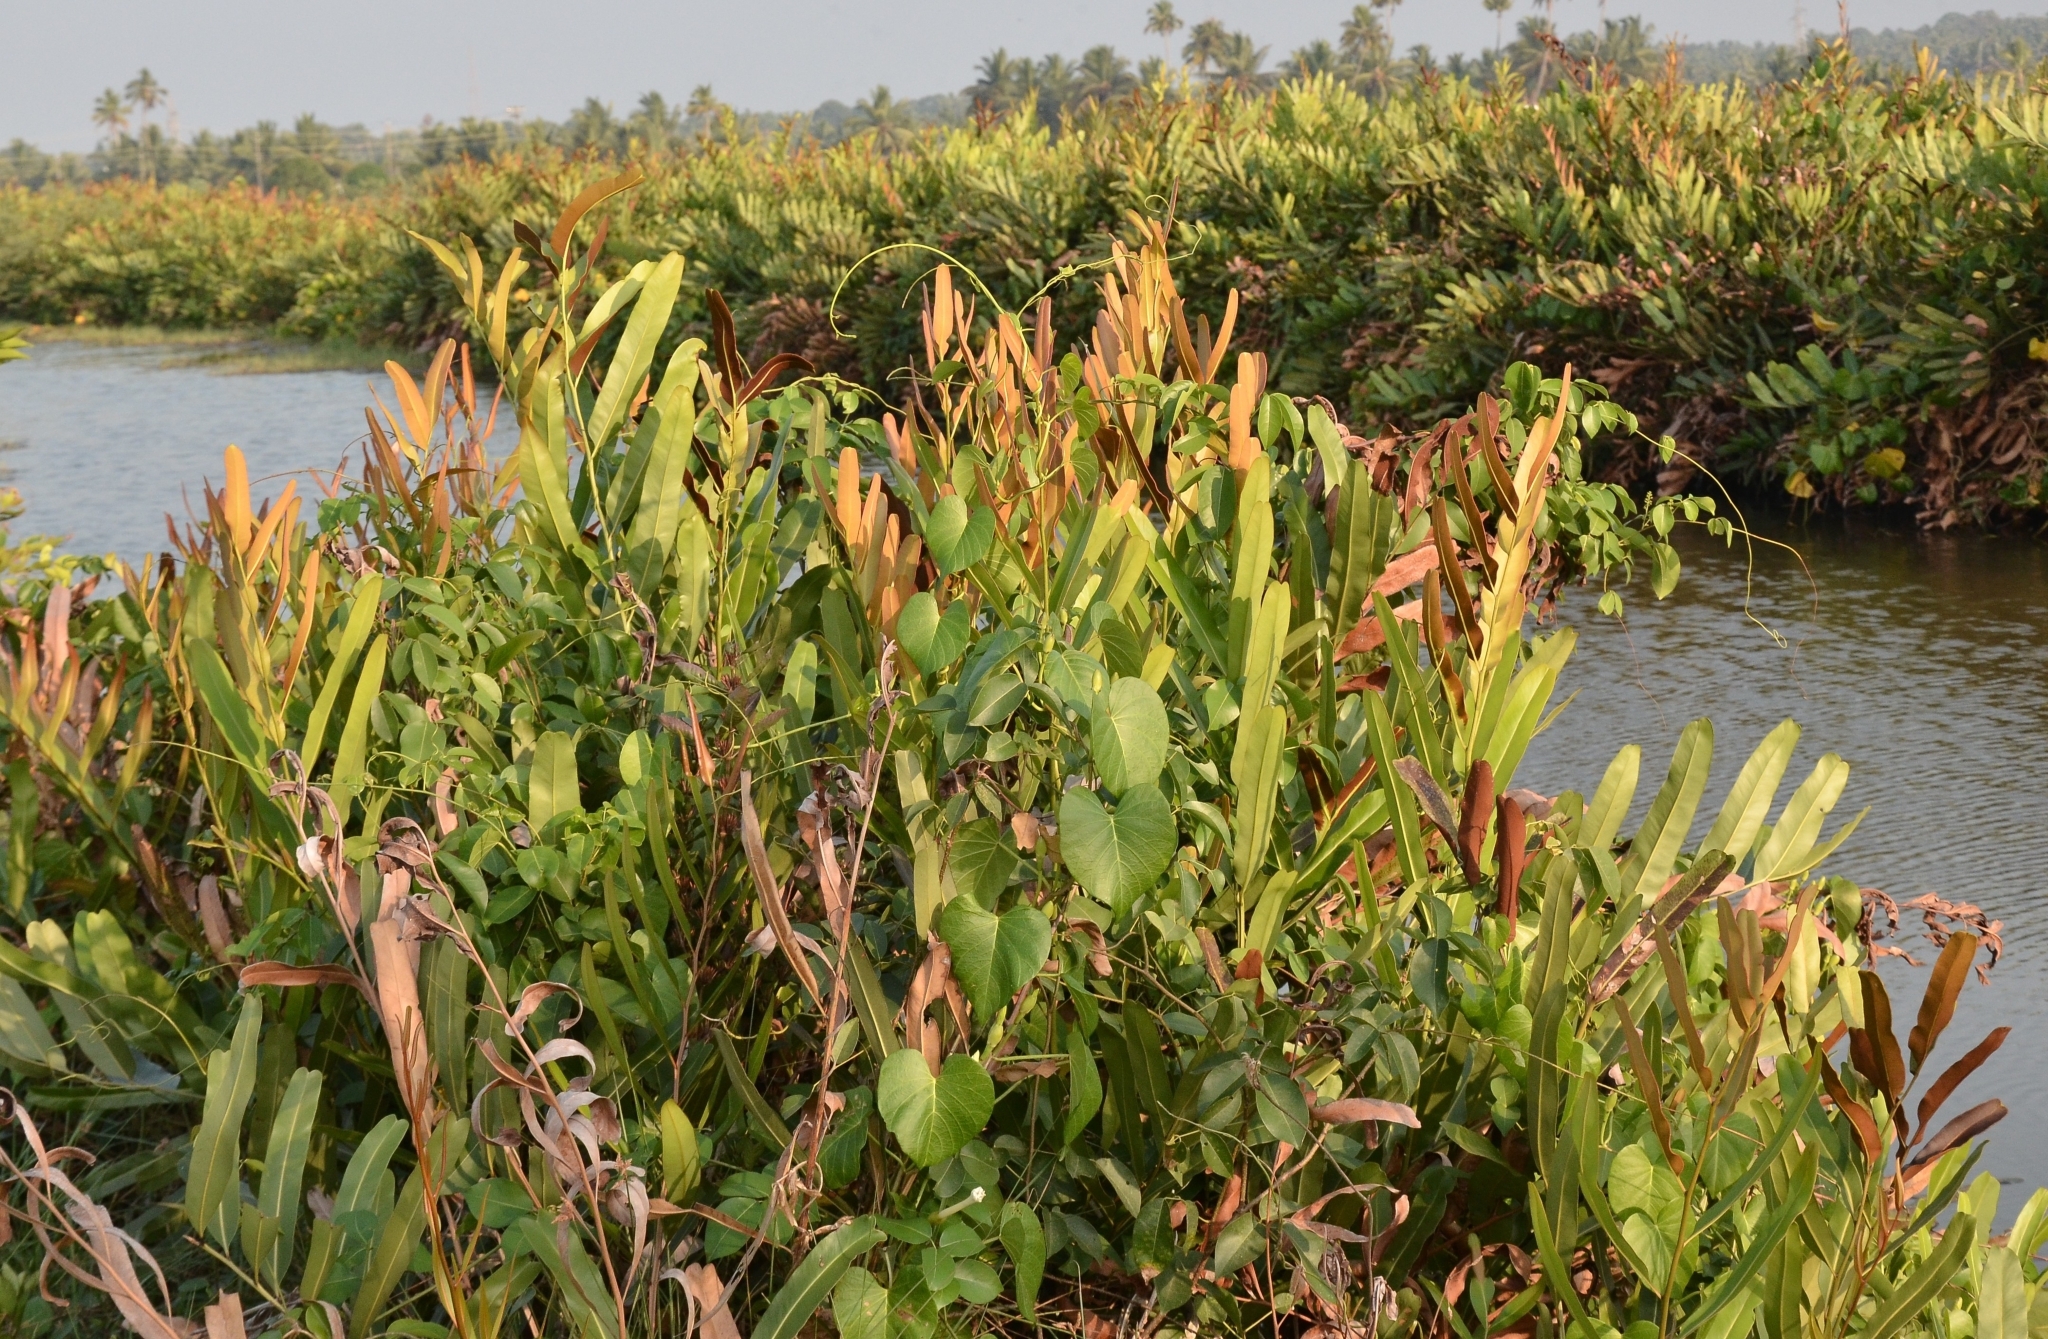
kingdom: Plantae
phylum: Tracheophyta
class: Polypodiopsida
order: Polypodiales
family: Pteridaceae
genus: Acrostichum
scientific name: Acrostichum aureum
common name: Leather fern
